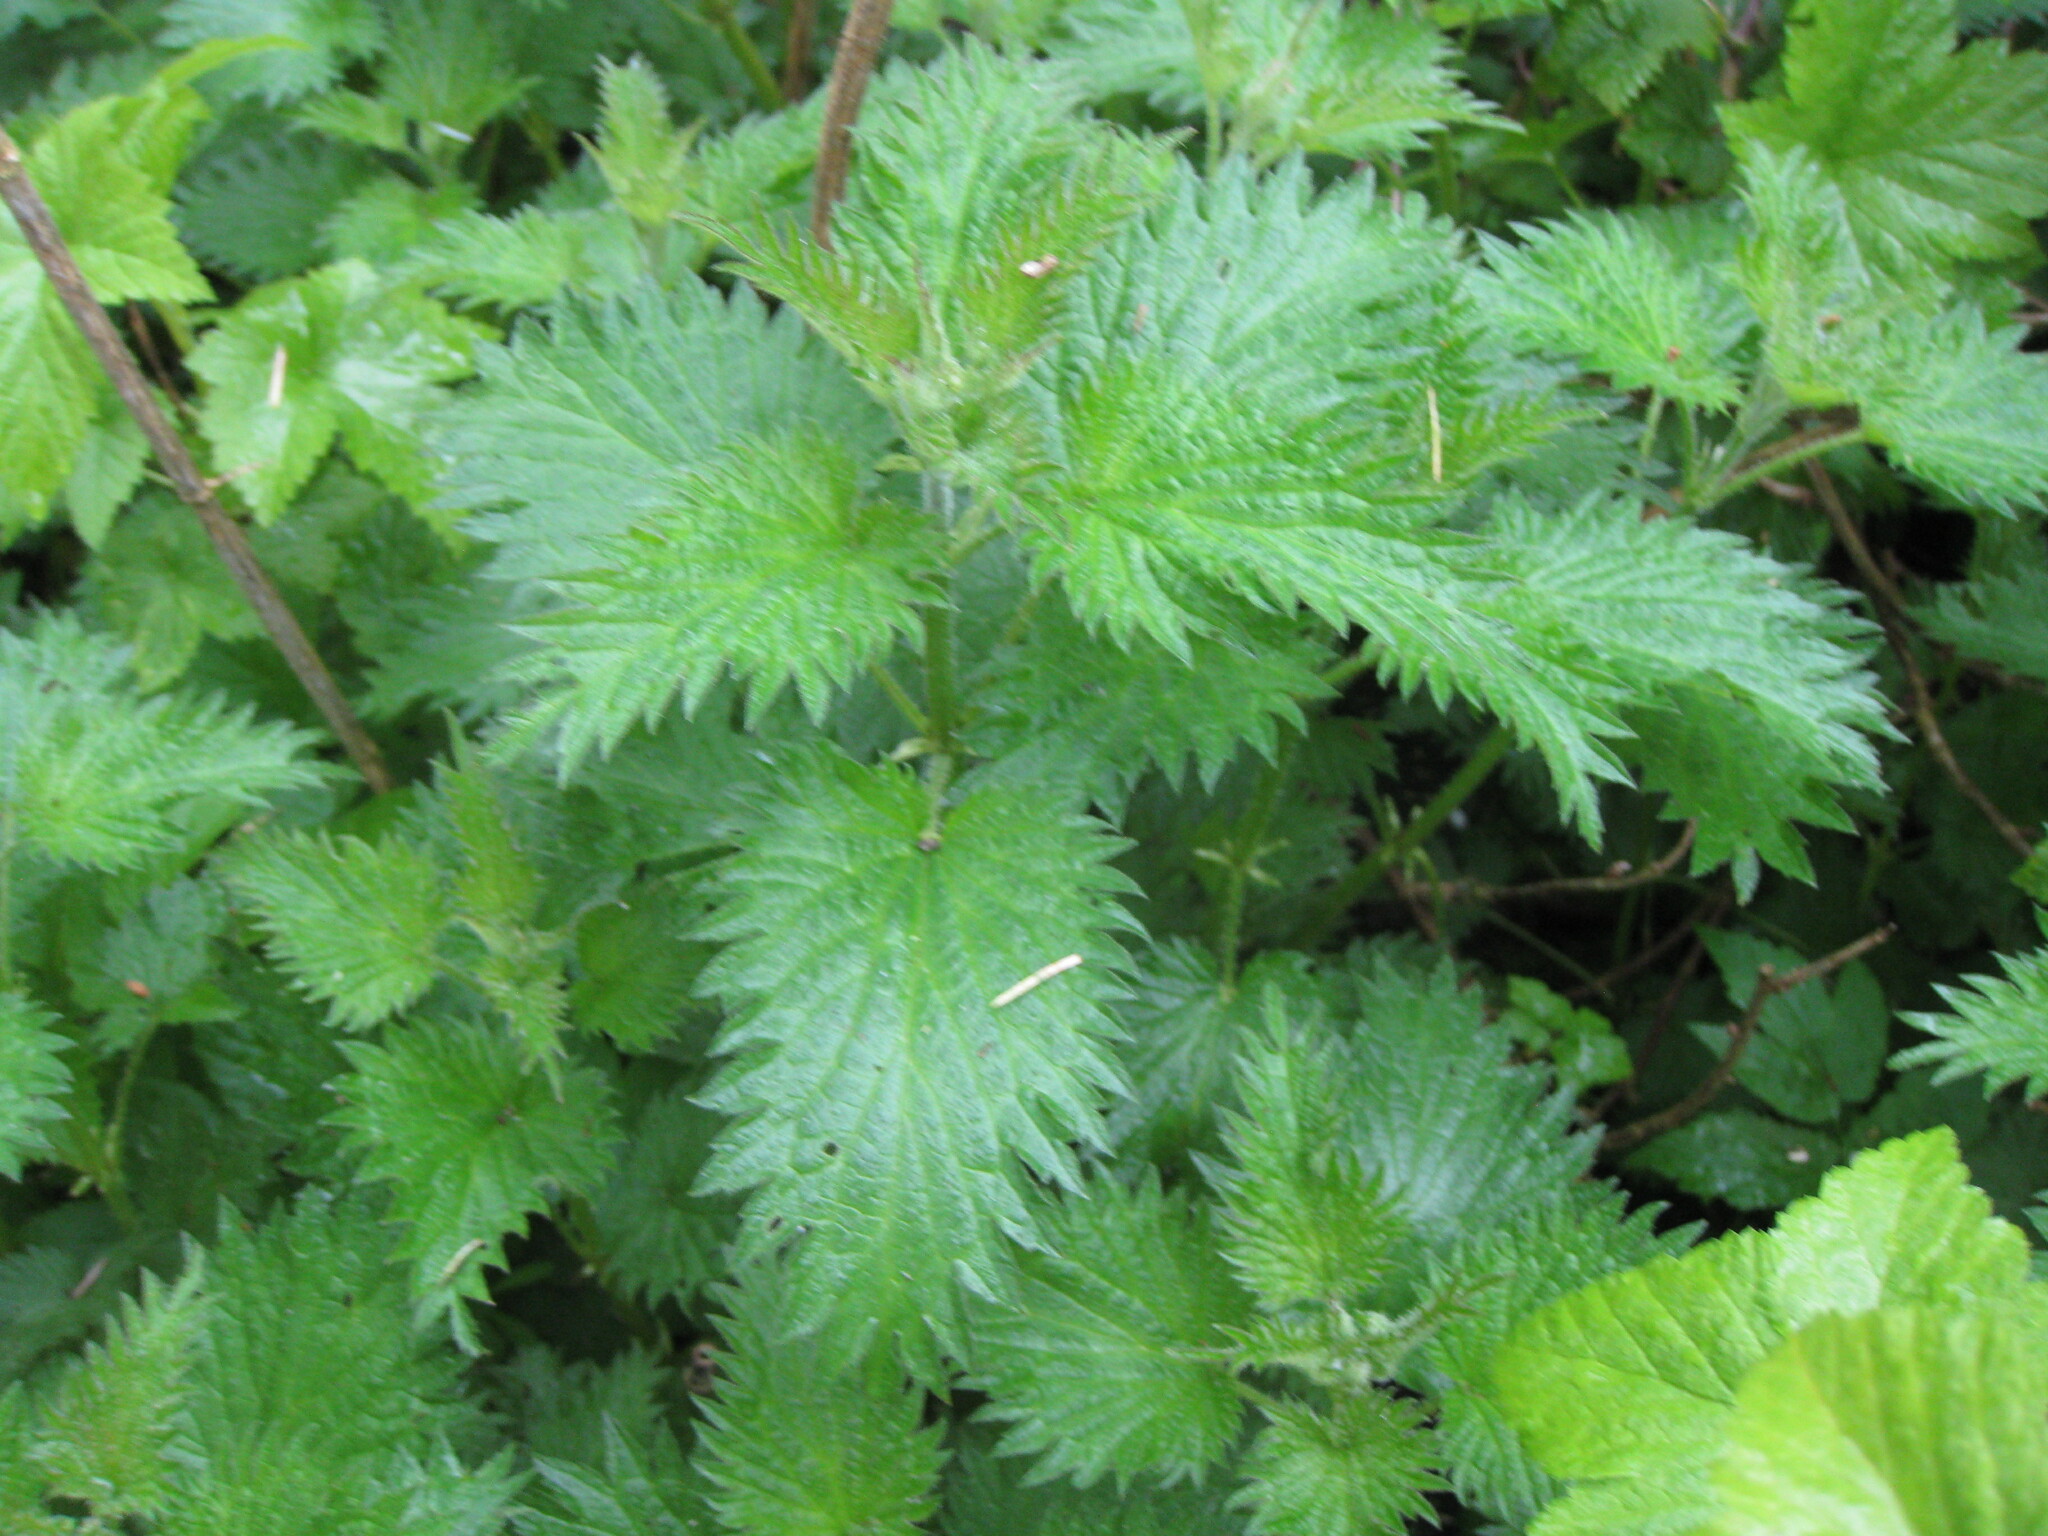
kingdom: Plantae
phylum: Tracheophyta
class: Magnoliopsida
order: Rosales
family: Urticaceae
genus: Urtica
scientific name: Urtica dioica
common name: Common nettle
